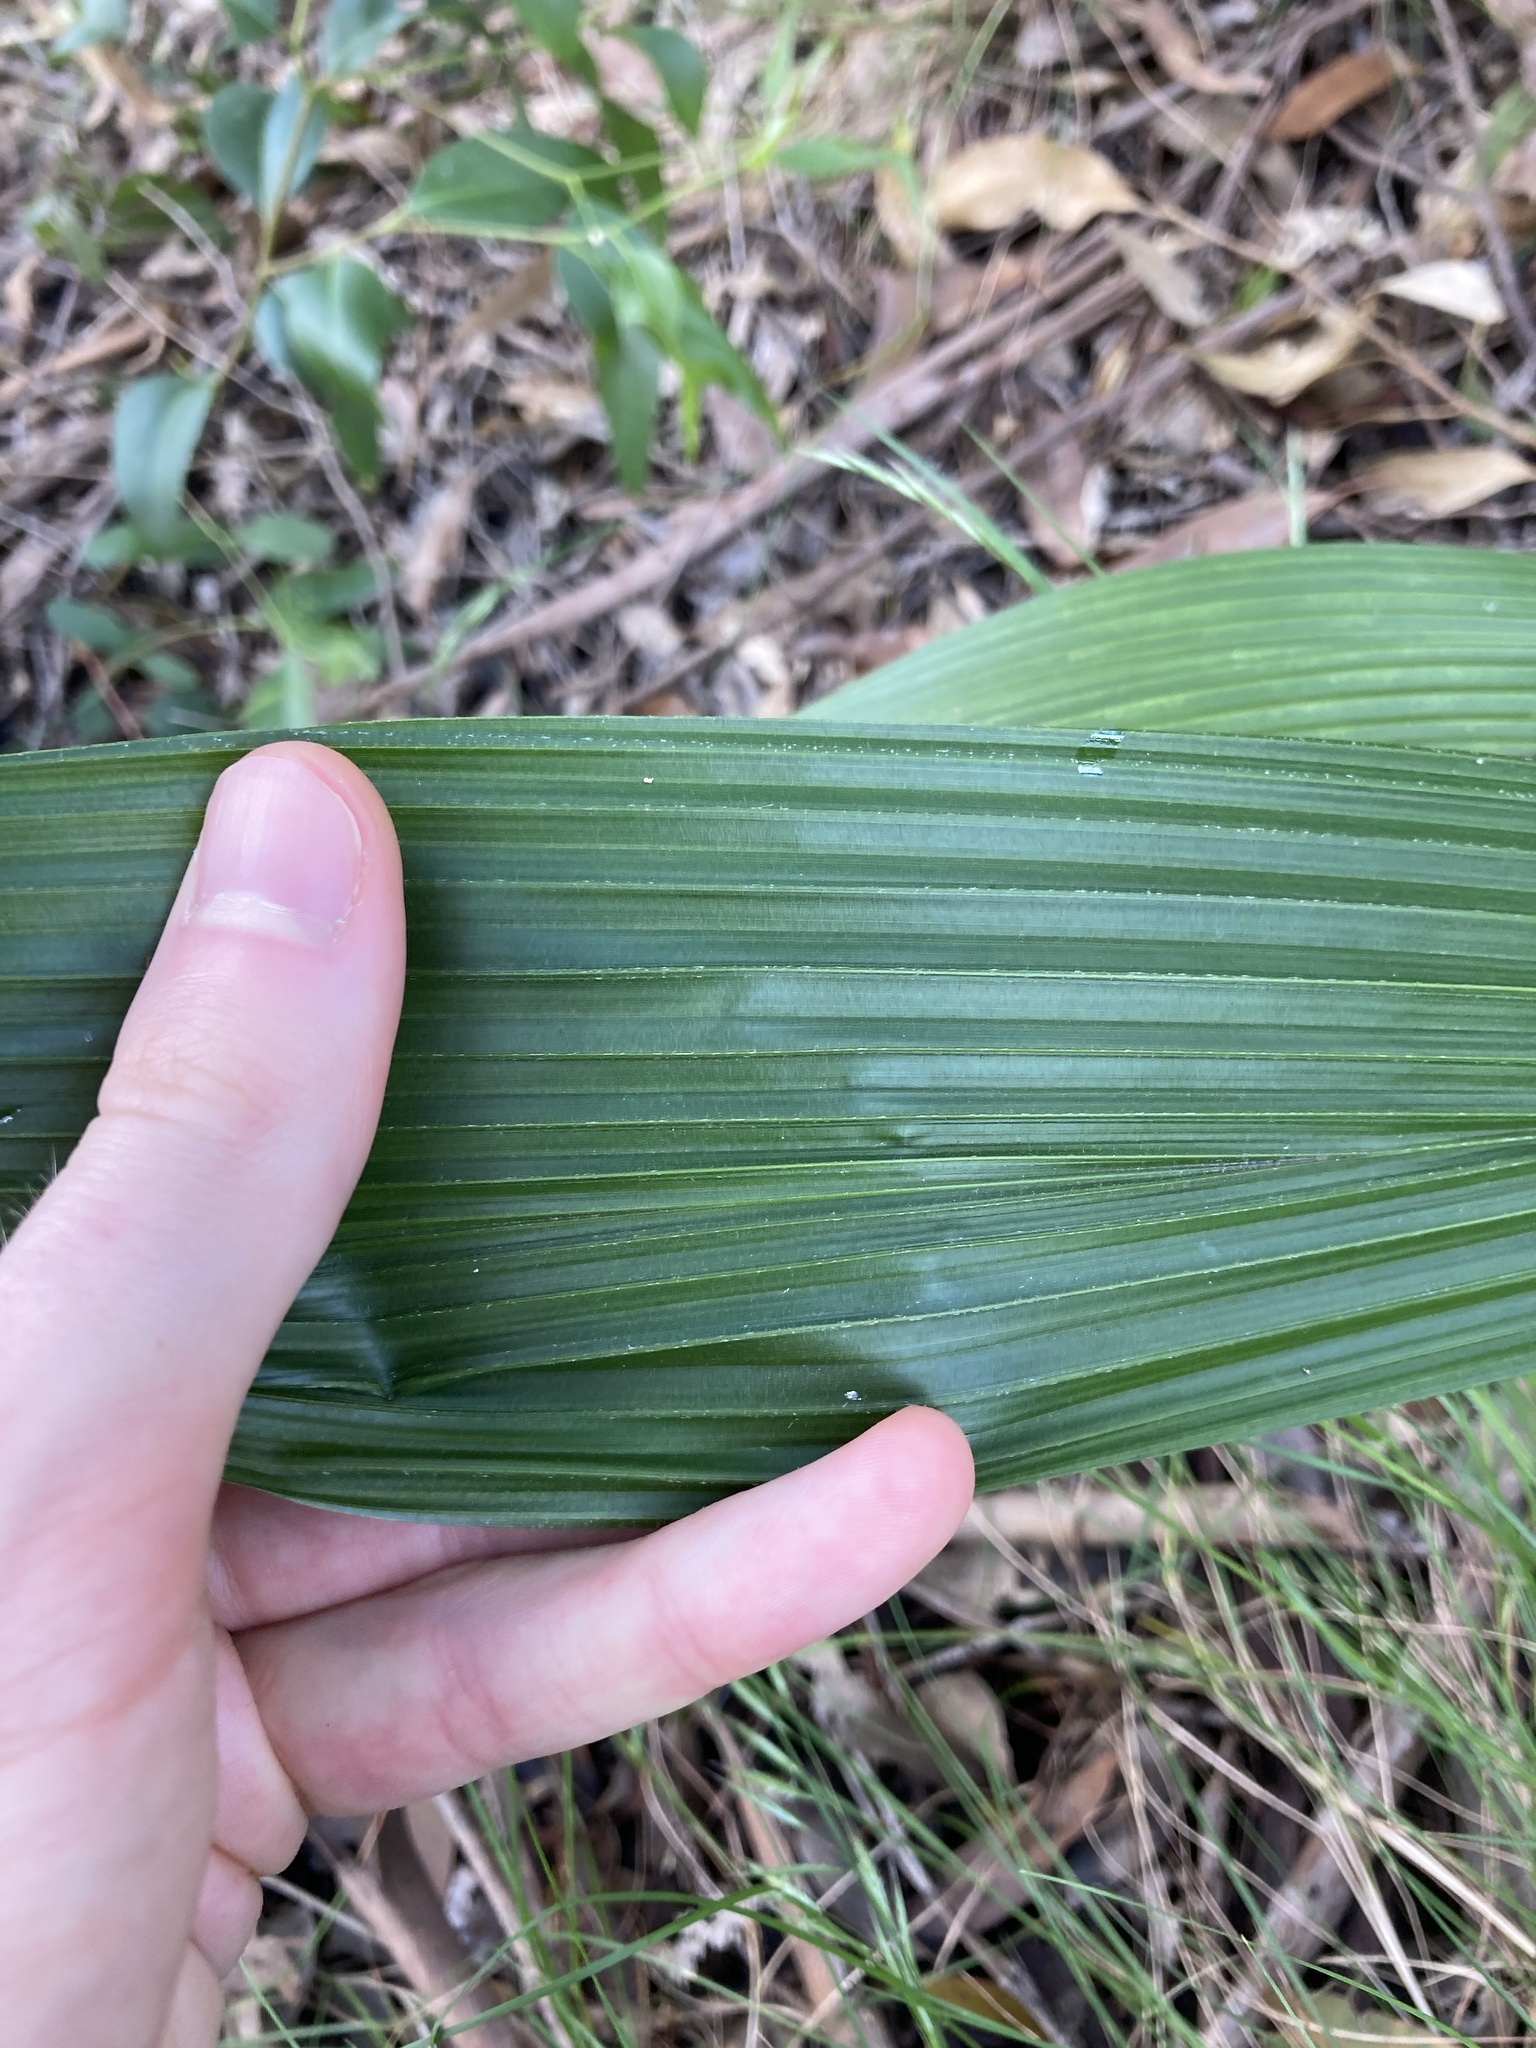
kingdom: Plantae
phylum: Tracheophyta
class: Liliopsida
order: Arecales
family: Arecaceae
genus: Syagrus
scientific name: Syagrus romanzoffiana
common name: Queen palm
